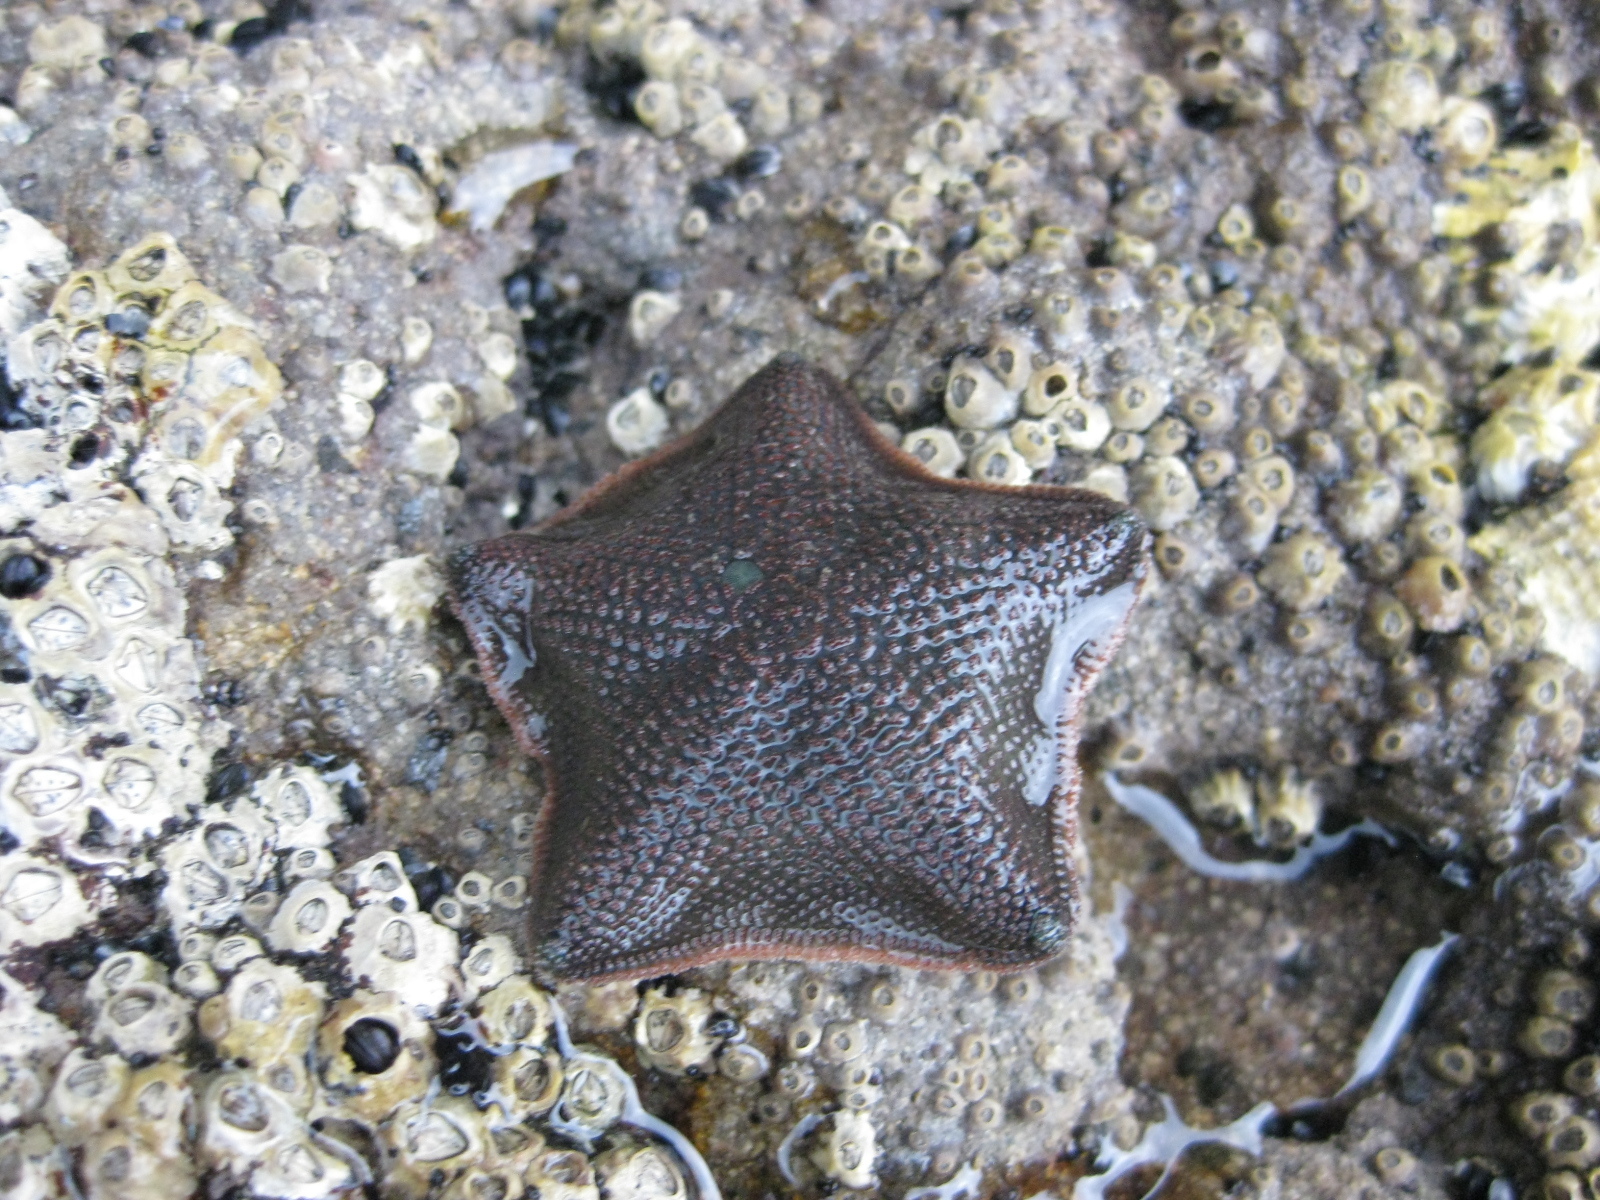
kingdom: Animalia
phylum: Echinodermata
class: Asteroidea
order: Valvatida
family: Asterinidae
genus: Patiriella
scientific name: Patiriella regularis
